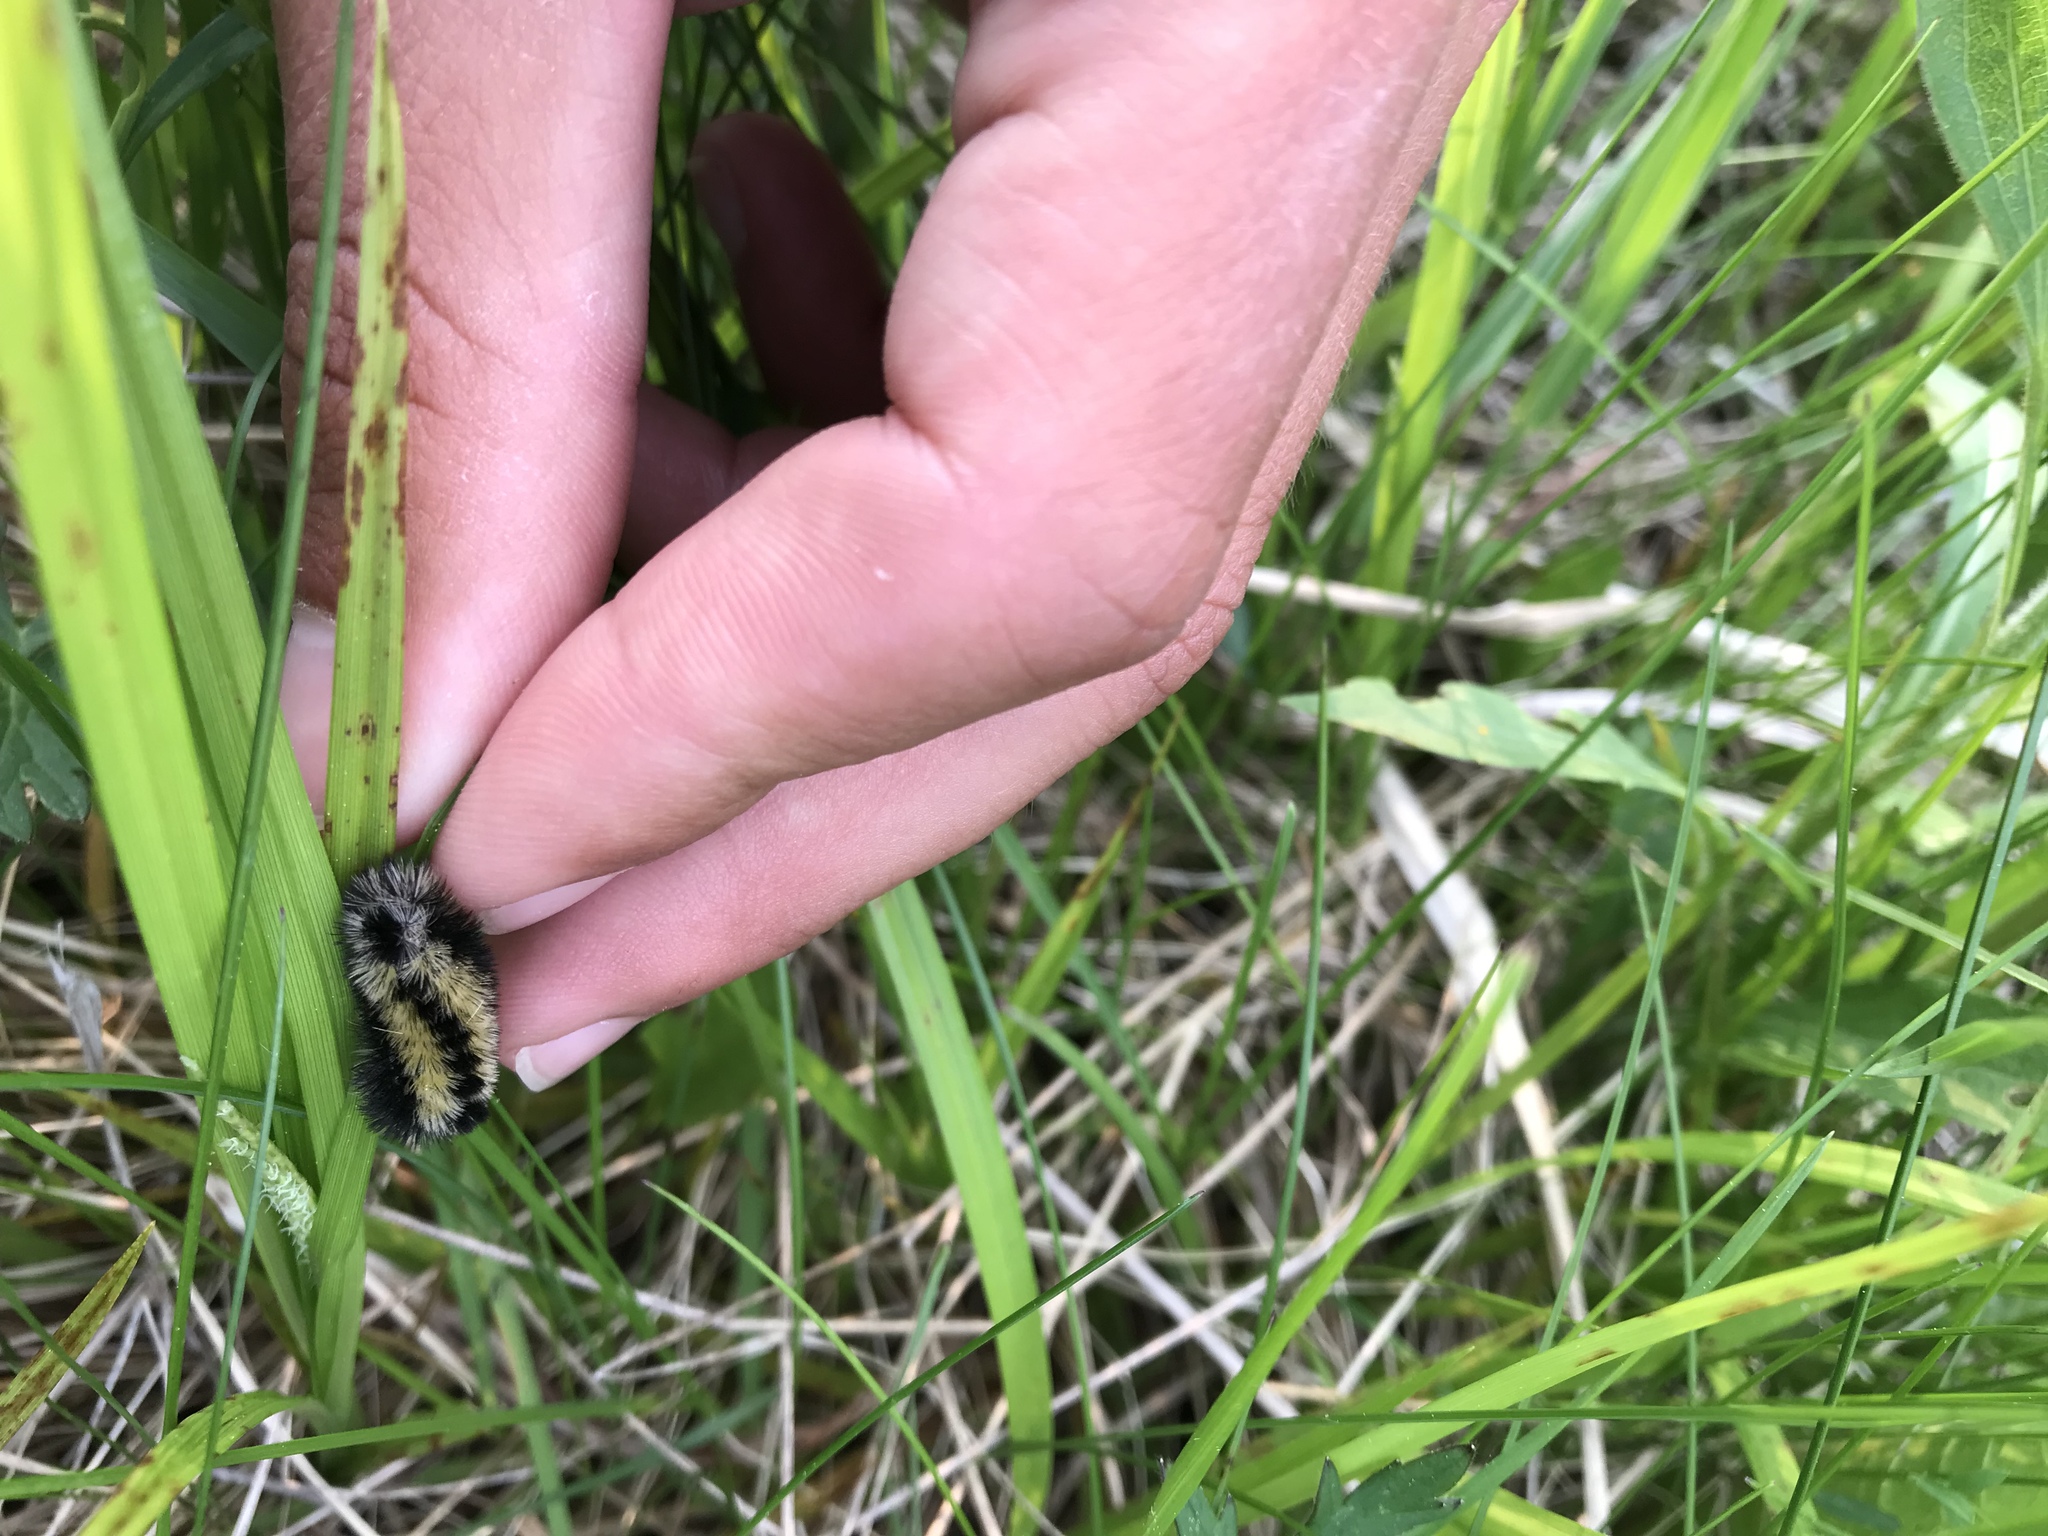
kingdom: Animalia
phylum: Arthropoda
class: Insecta
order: Lepidoptera
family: Erebidae
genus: Ctenucha
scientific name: Ctenucha virginica
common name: Virginia ctenucha moth
